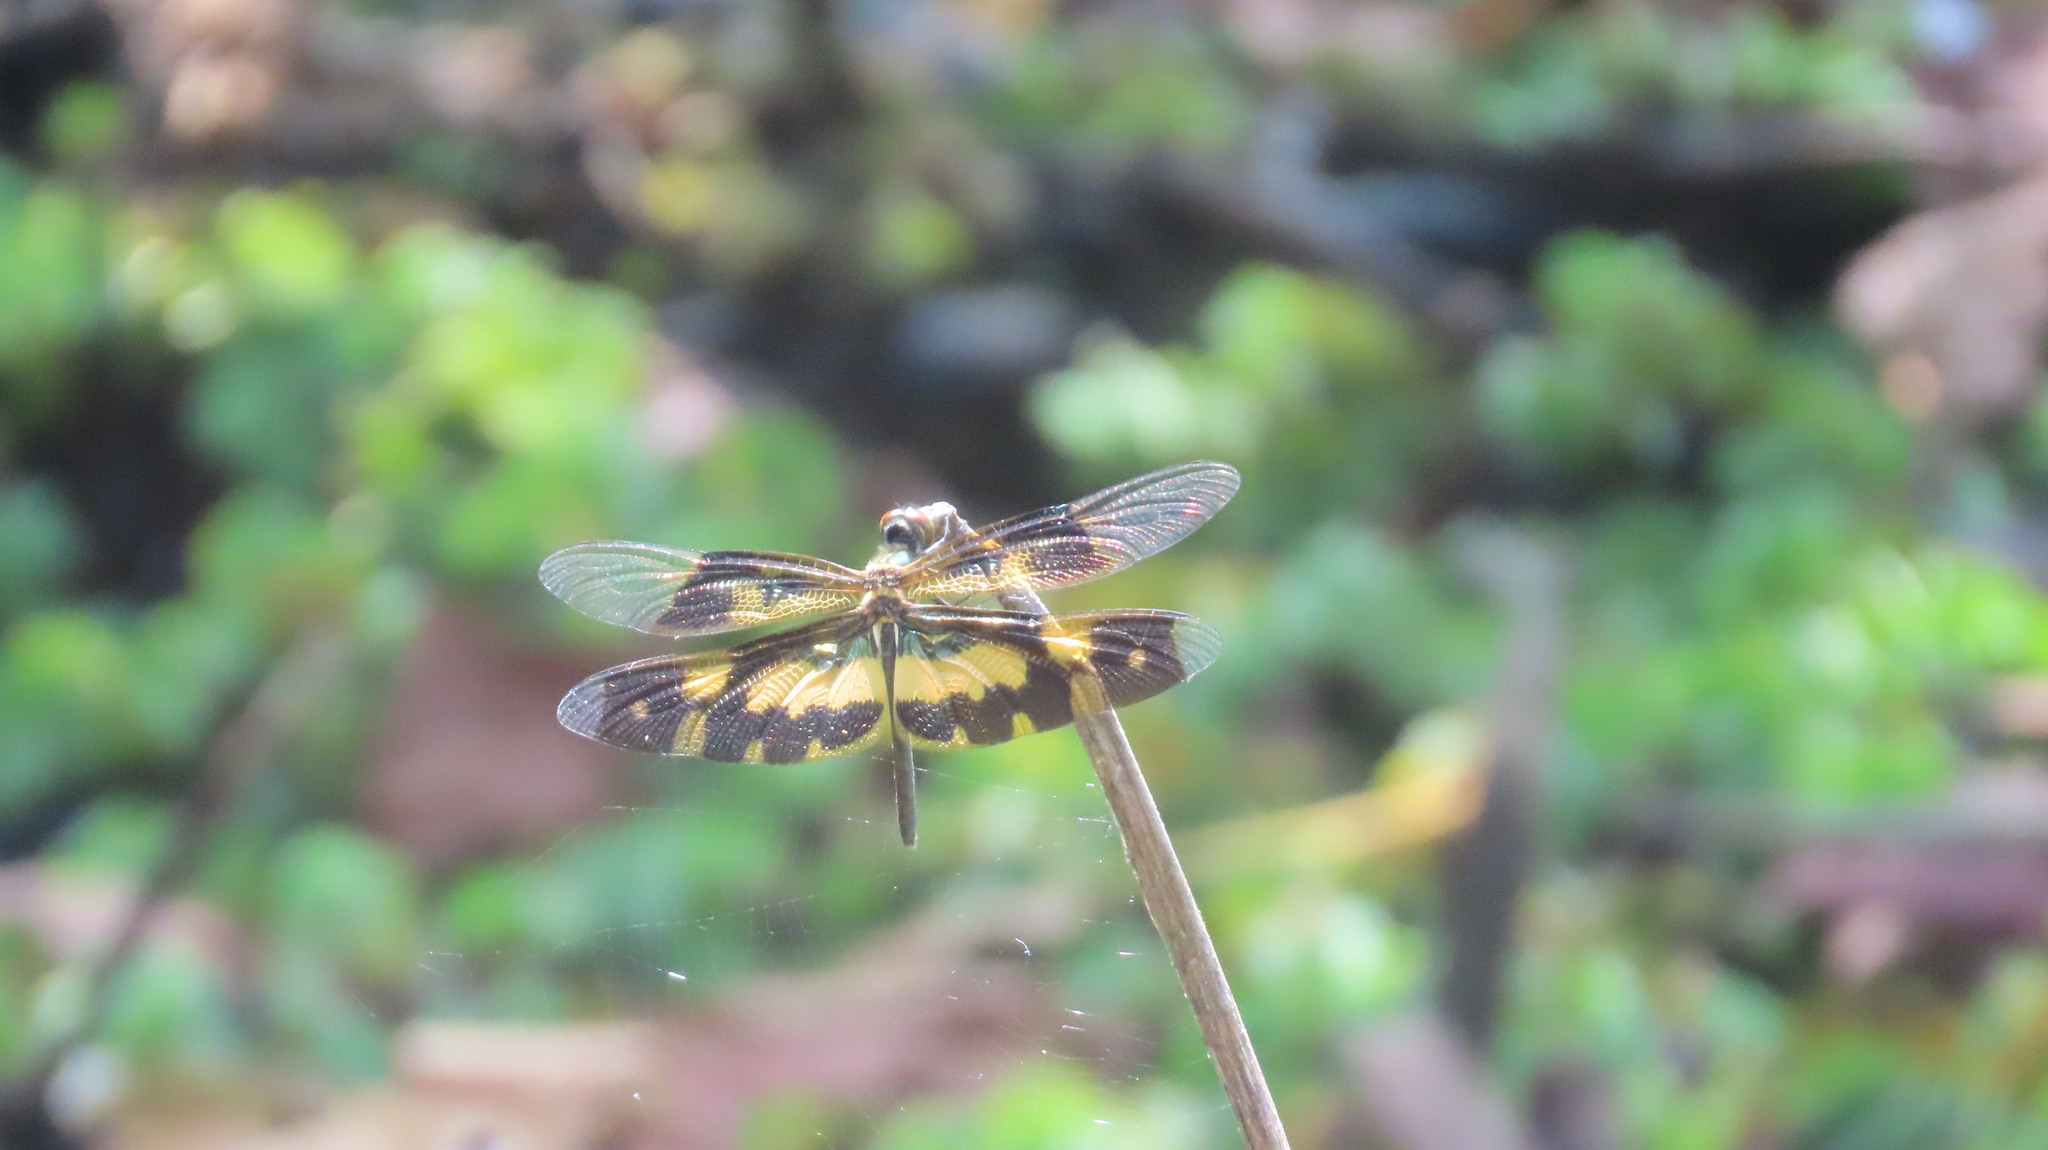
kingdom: Animalia
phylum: Arthropoda
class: Insecta
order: Odonata
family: Libellulidae
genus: Rhyothemis
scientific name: Rhyothemis variegata
